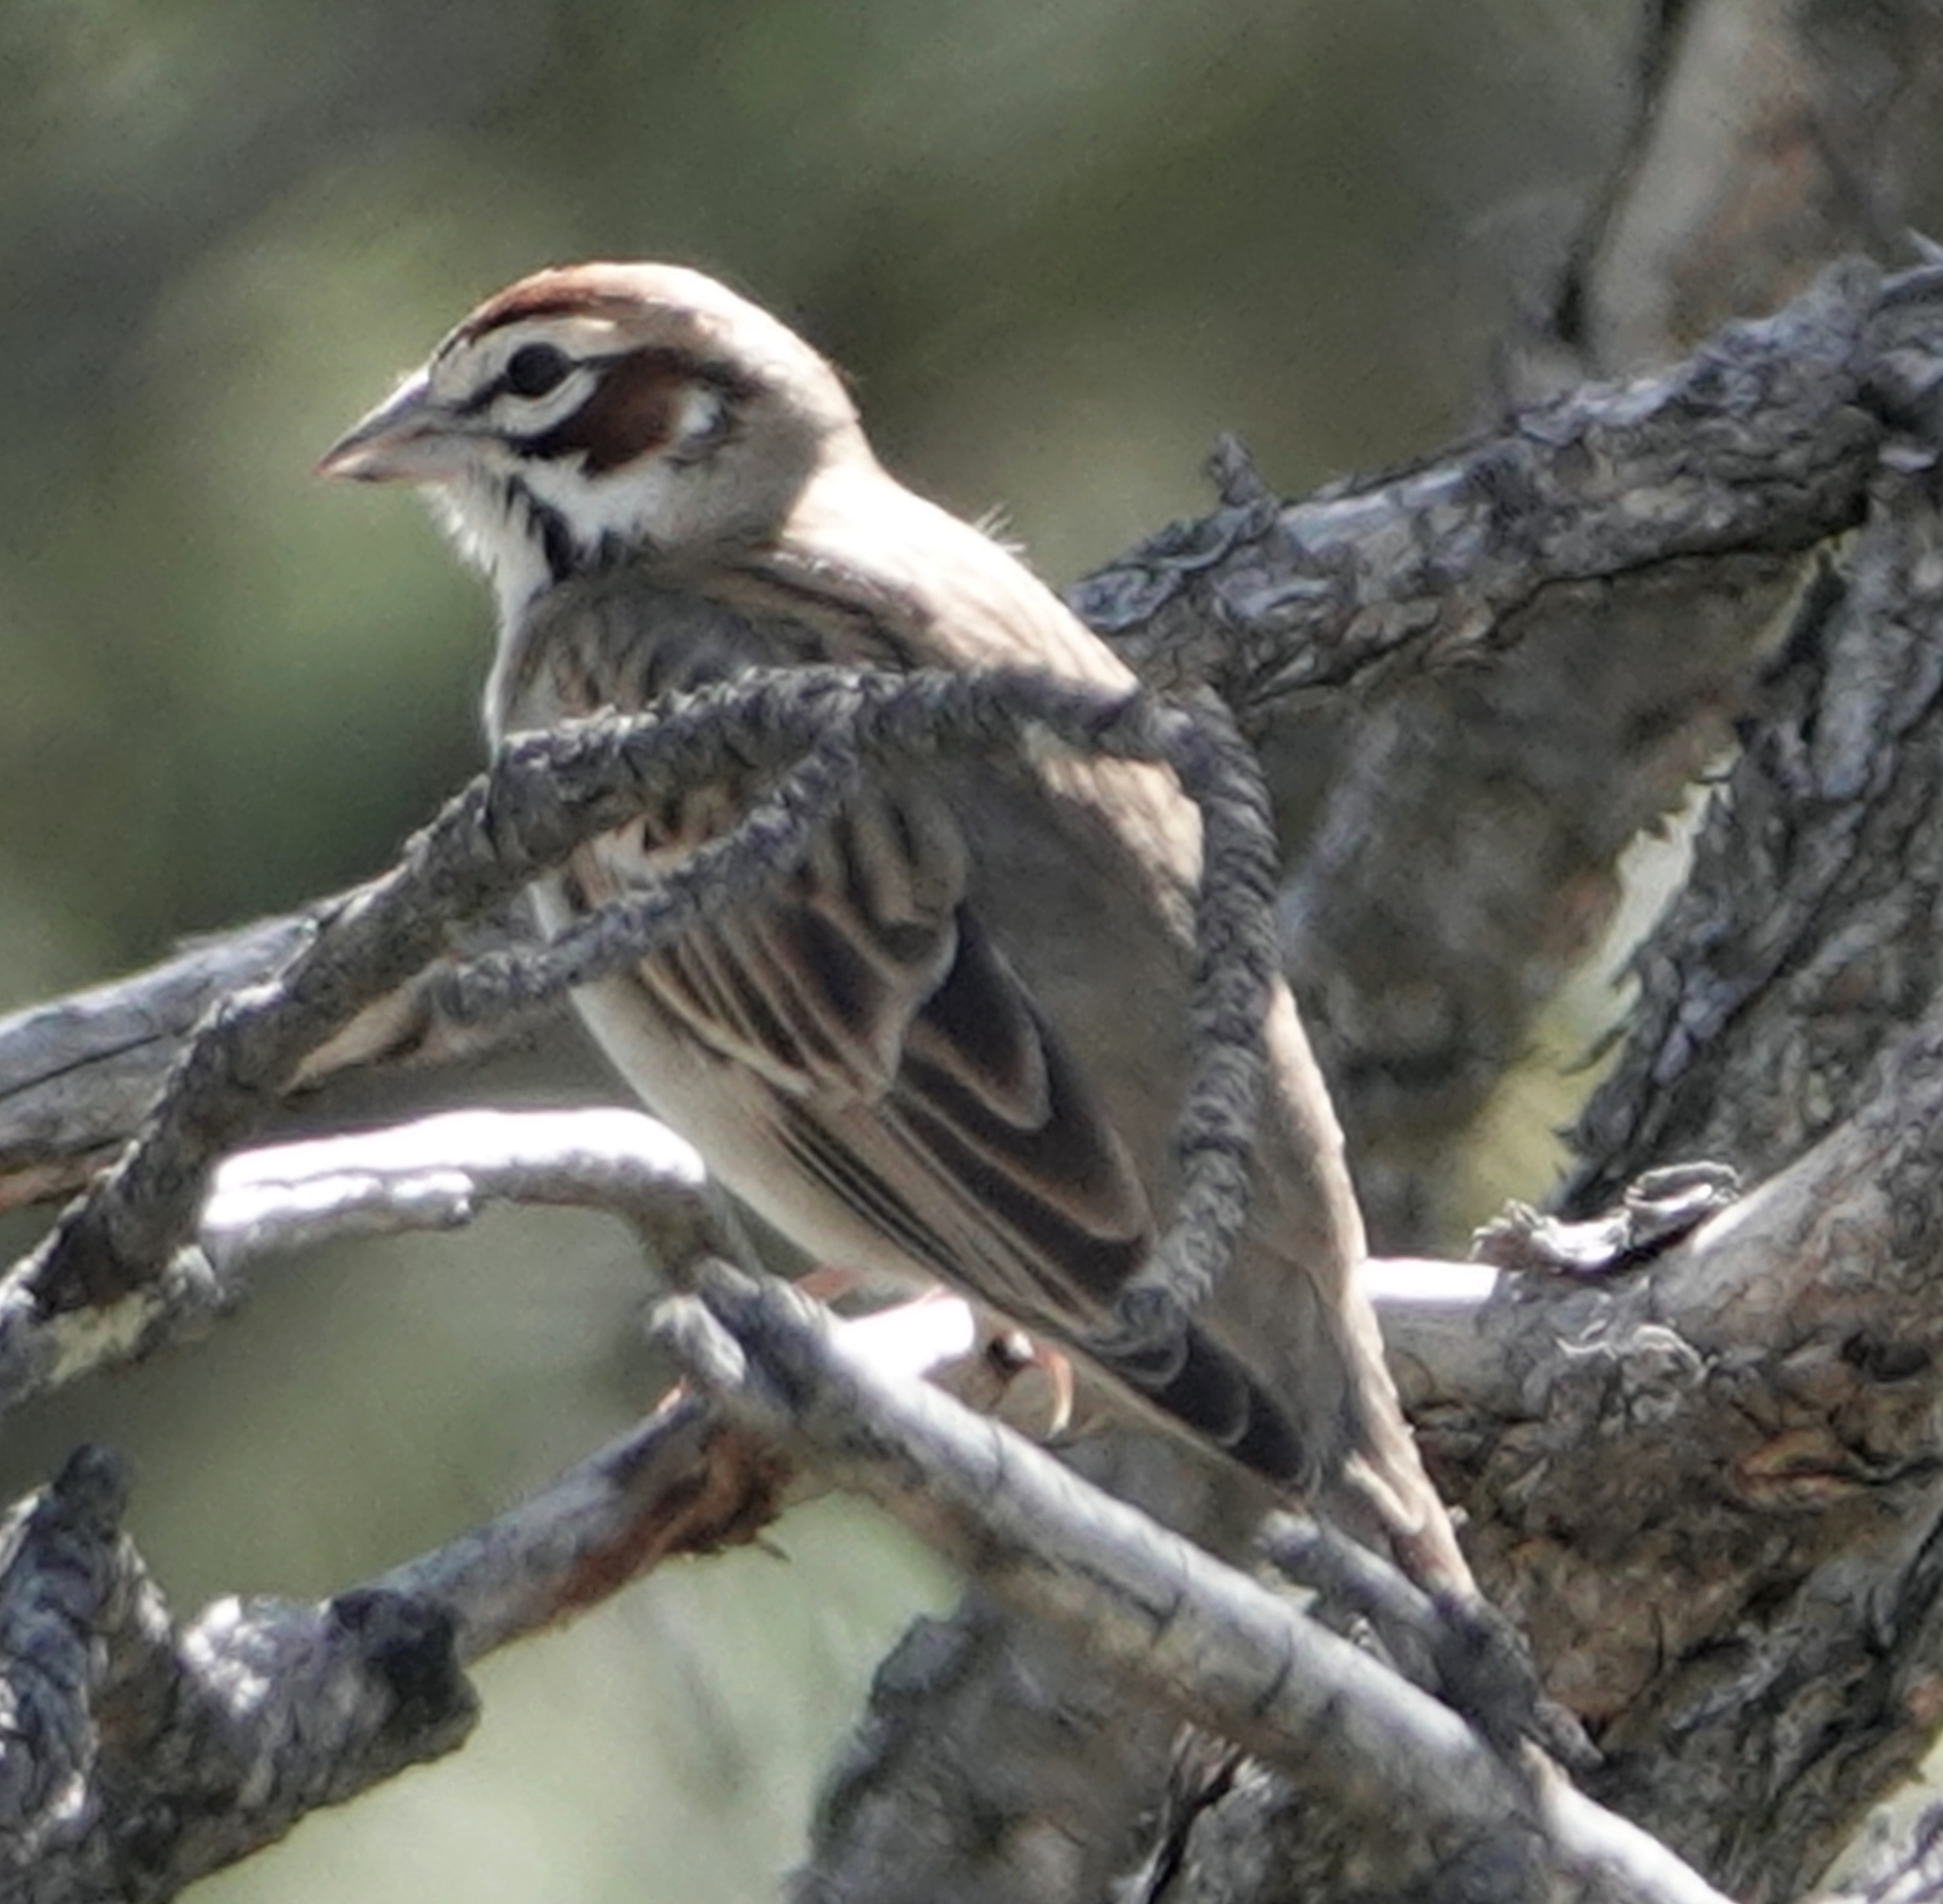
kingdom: Animalia
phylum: Chordata
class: Aves
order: Passeriformes
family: Passerellidae
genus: Chondestes
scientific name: Chondestes grammacus
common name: Lark sparrow
